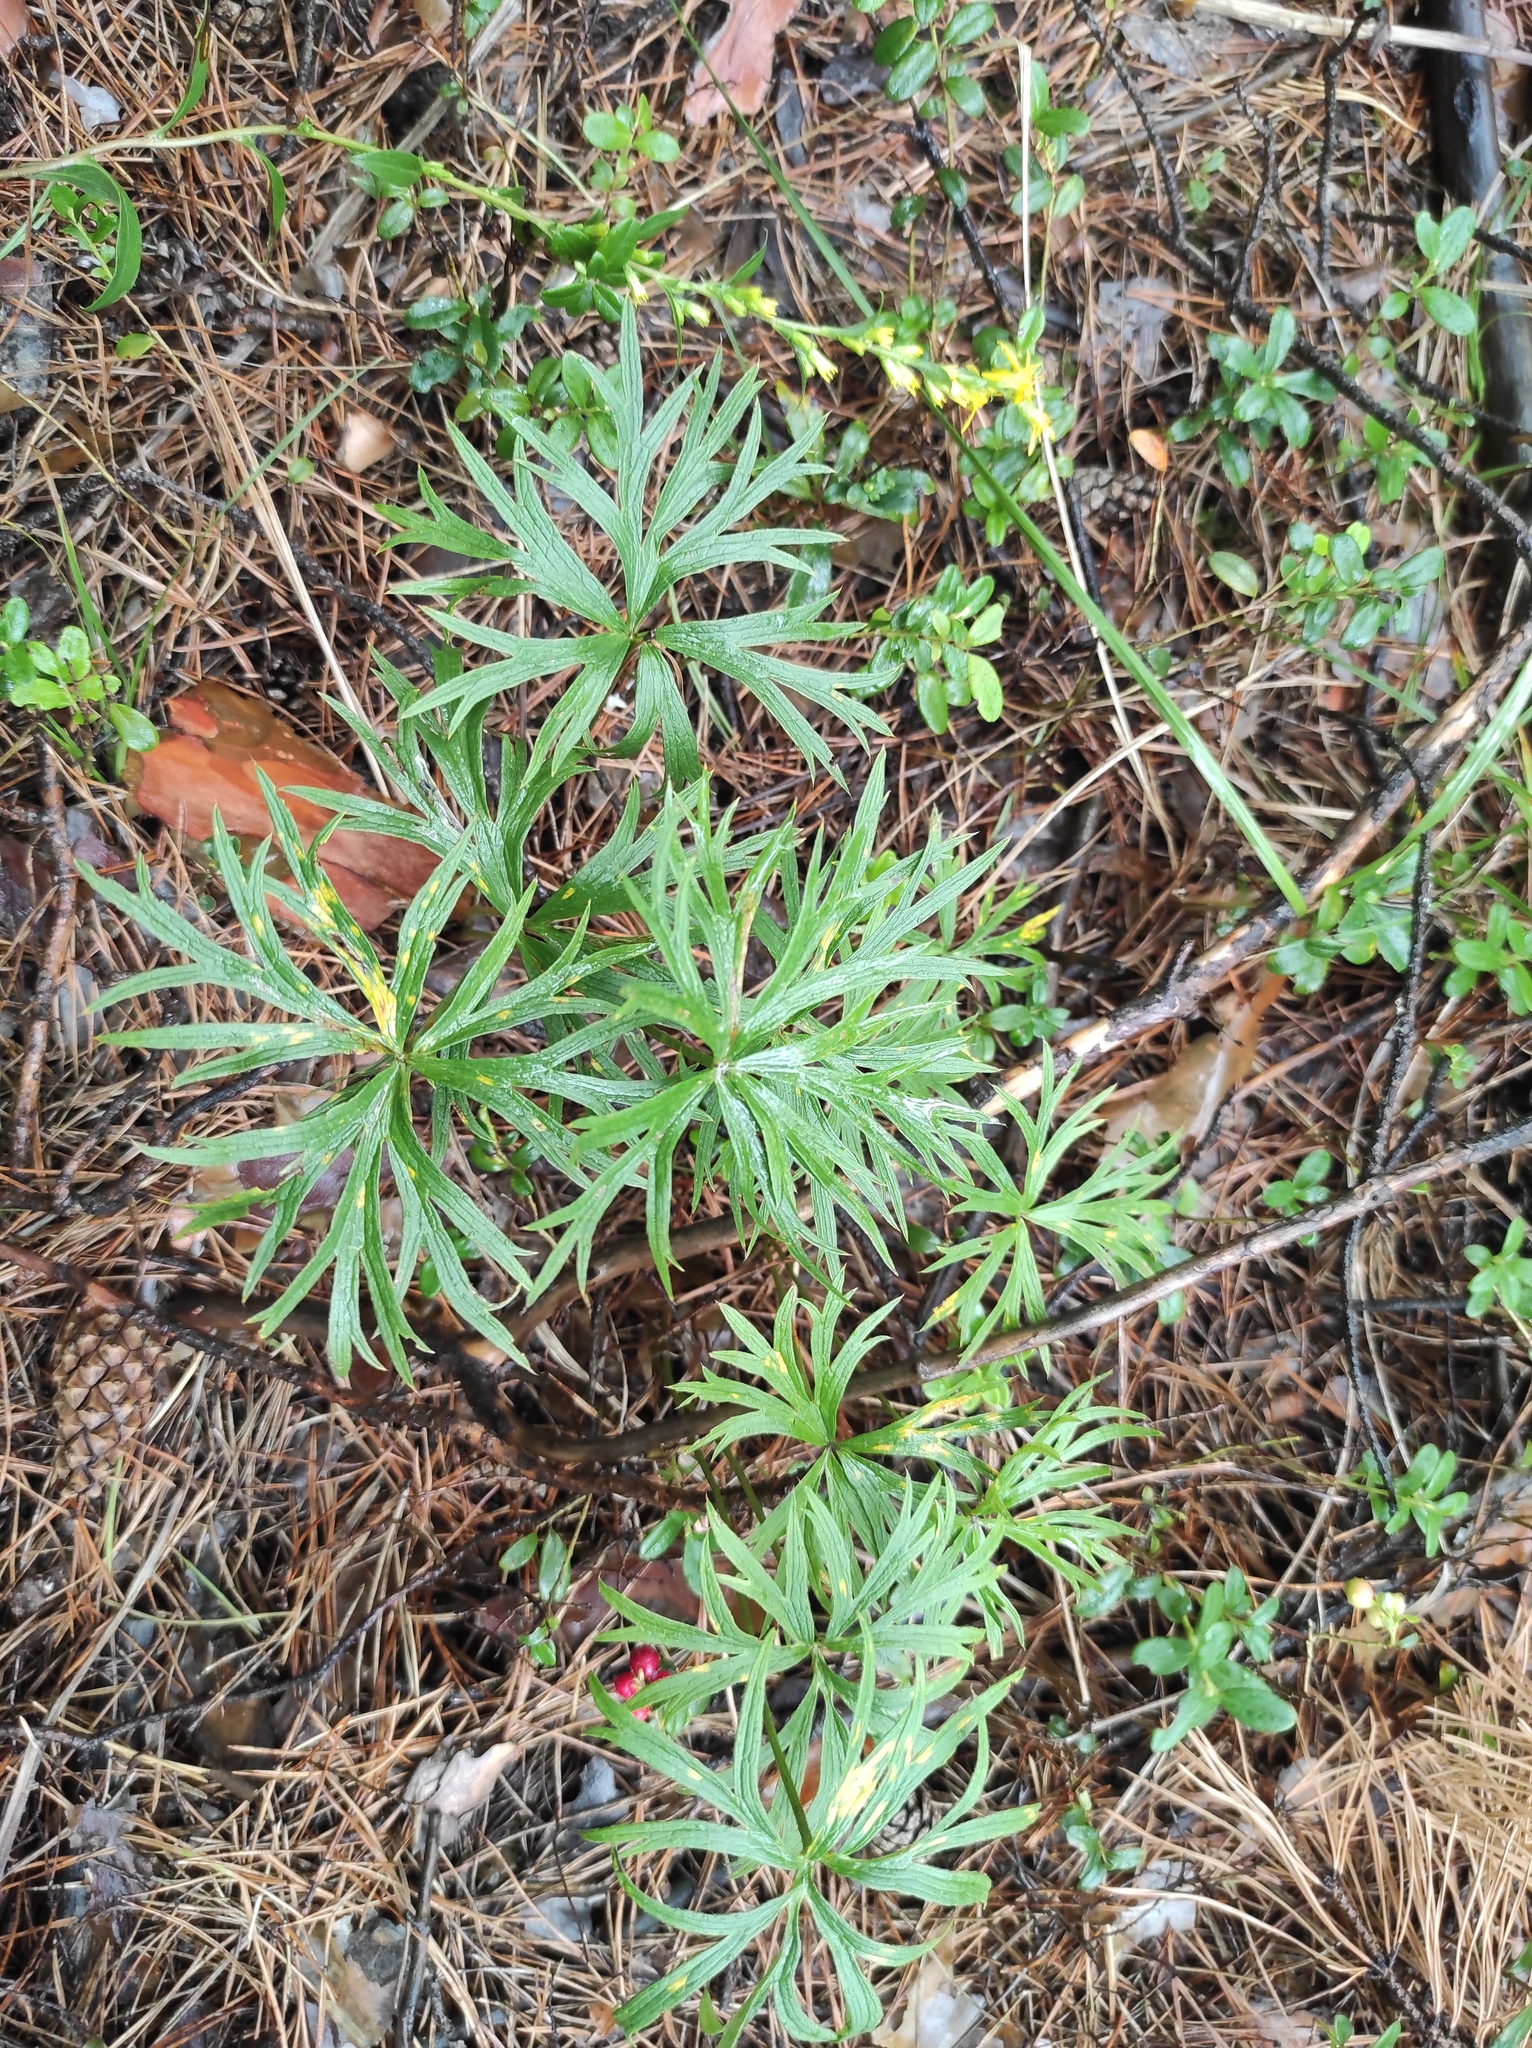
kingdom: Plantae
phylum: Tracheophyta
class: Magnoliopsida
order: Ranunculales
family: Ranunculaceae
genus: Pulsatilla
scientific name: Pulsatilla patens
